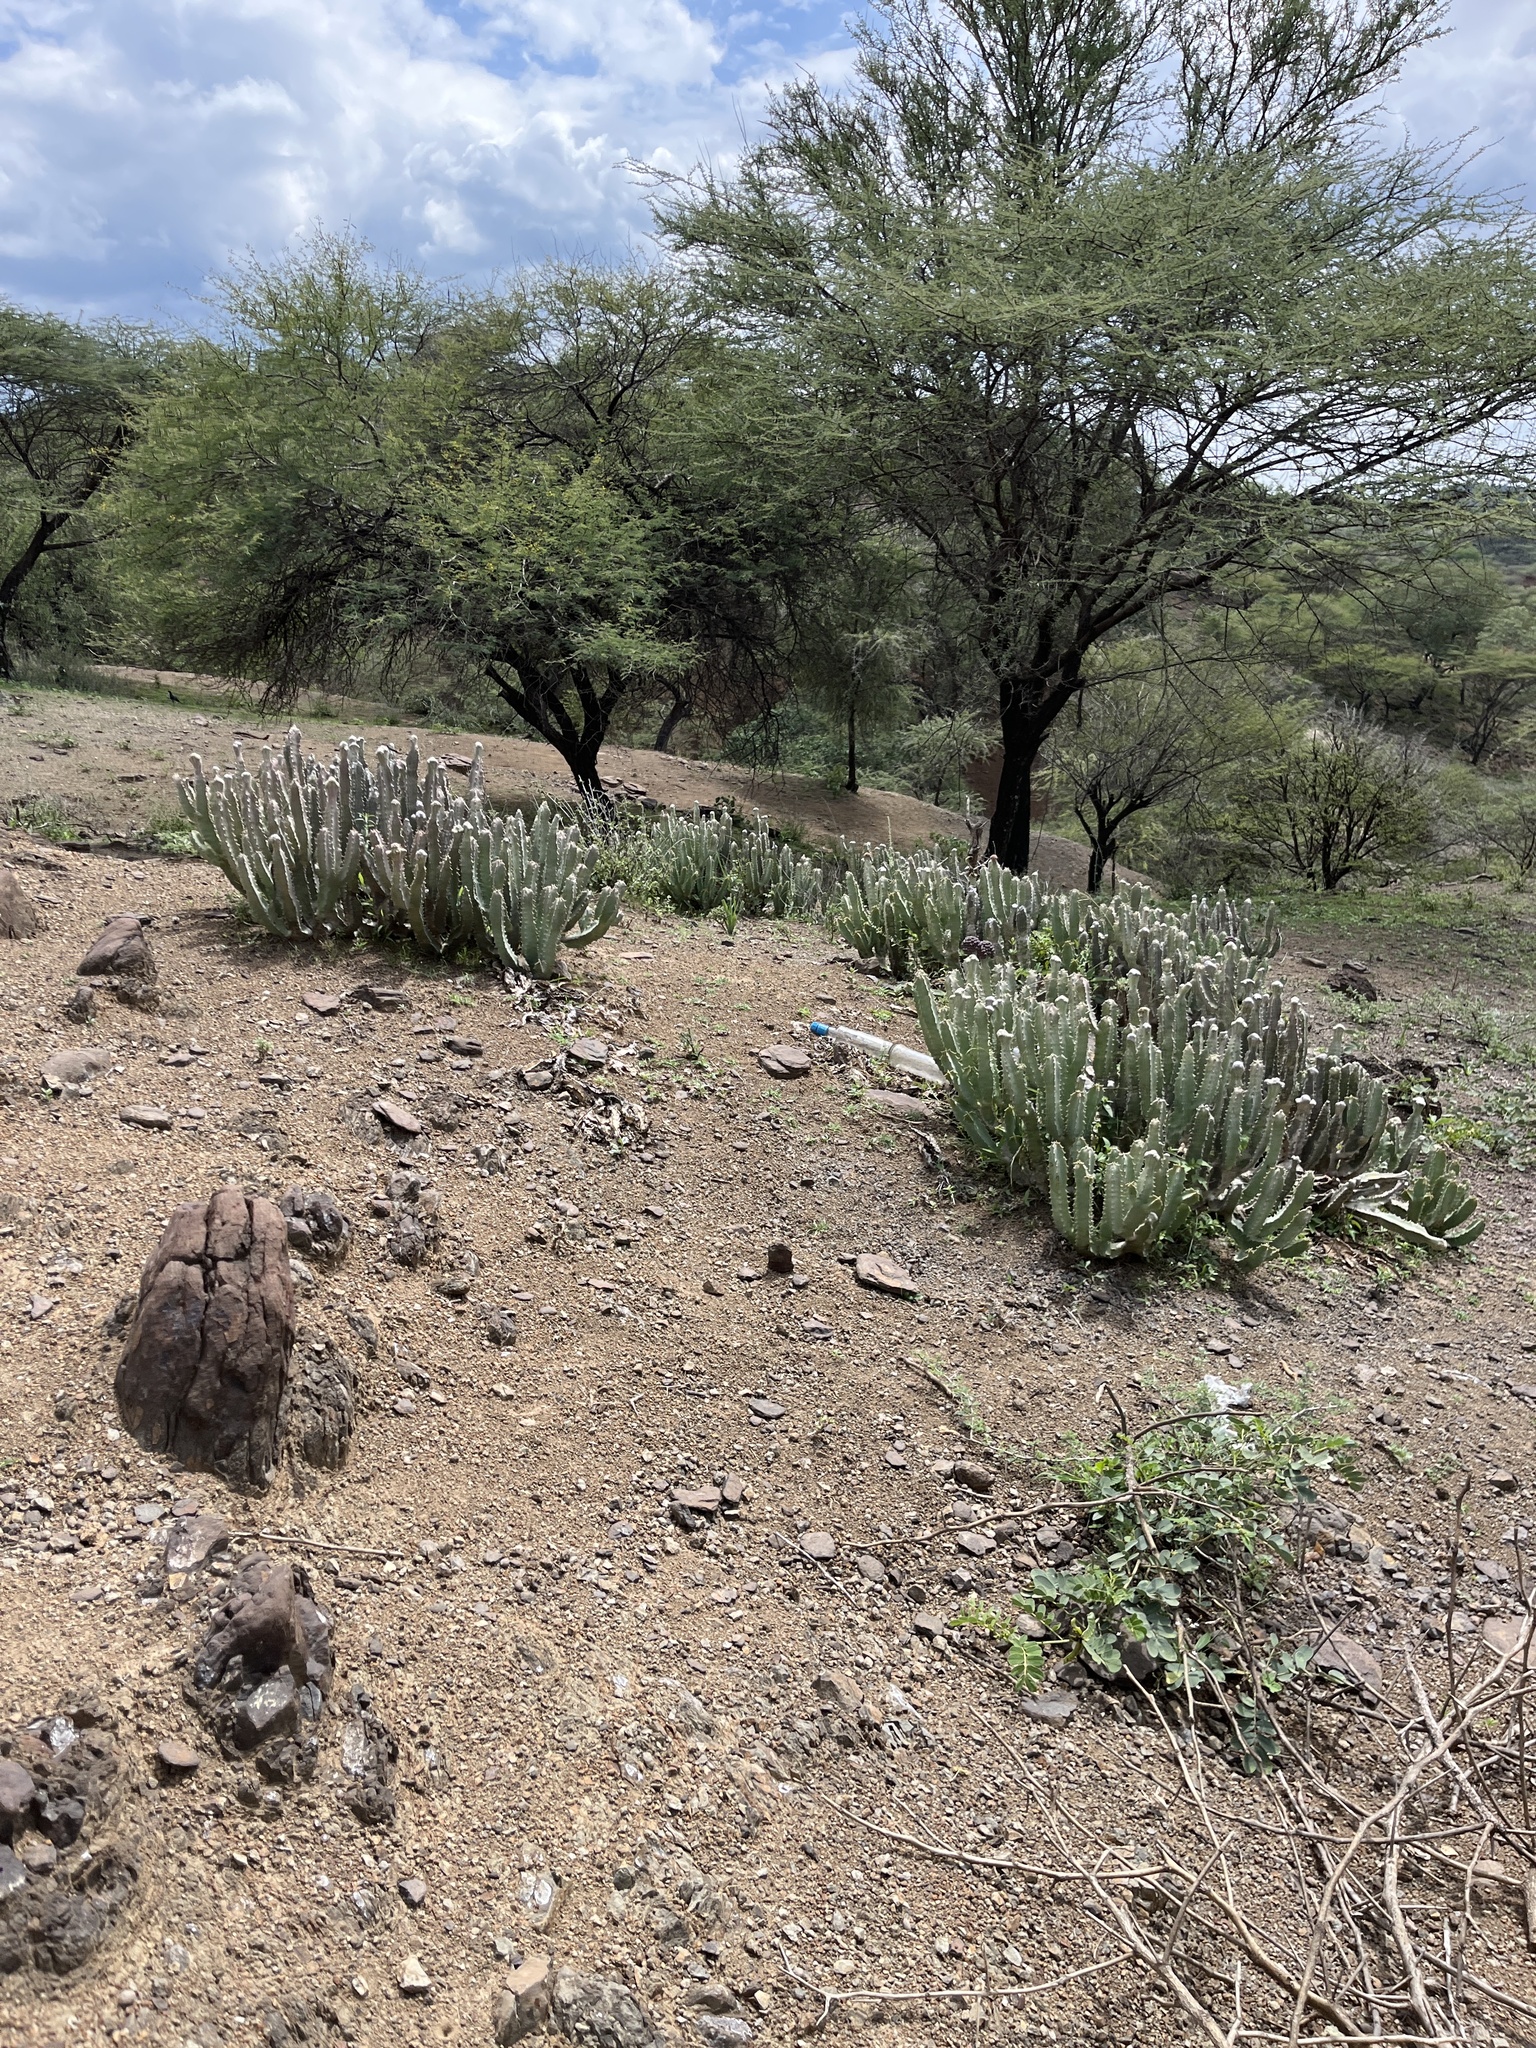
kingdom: Plantae
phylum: Tracheophyta
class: Magnoliopsida
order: Gentianales
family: Apocynaceae
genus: Ceropegia
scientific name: Ceropegia codonoides
